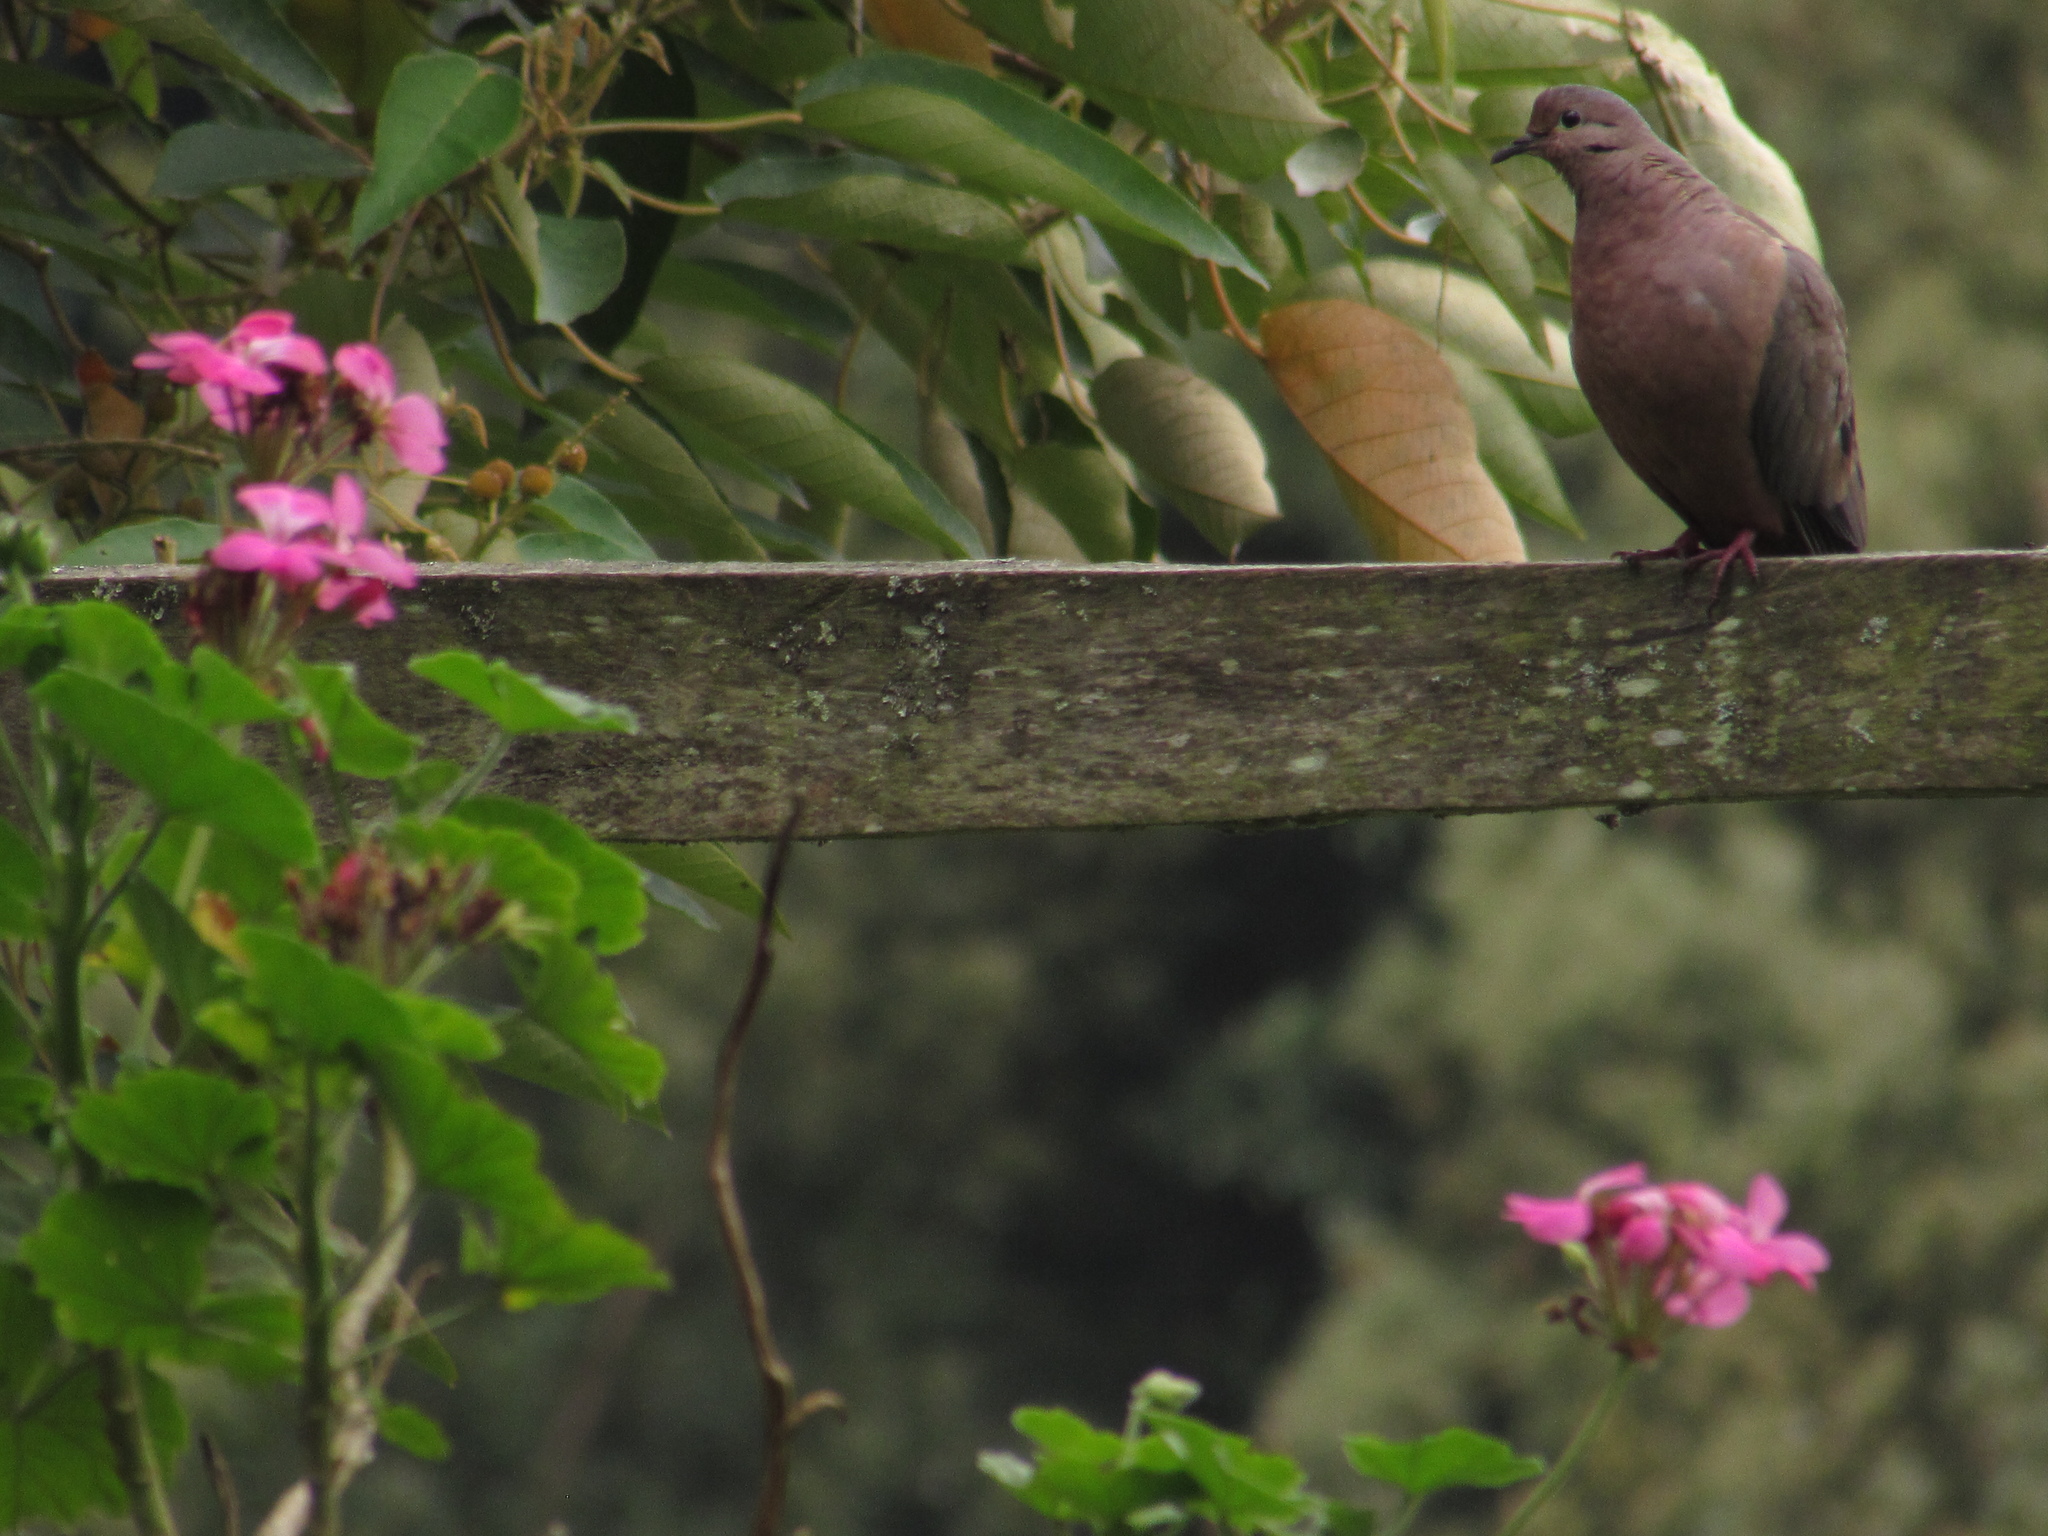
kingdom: Animalia
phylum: Chordata
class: Aves
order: Columbiformes
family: Columbidae
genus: Zenaida
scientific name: Zenaida auriculata
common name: Eared dove
